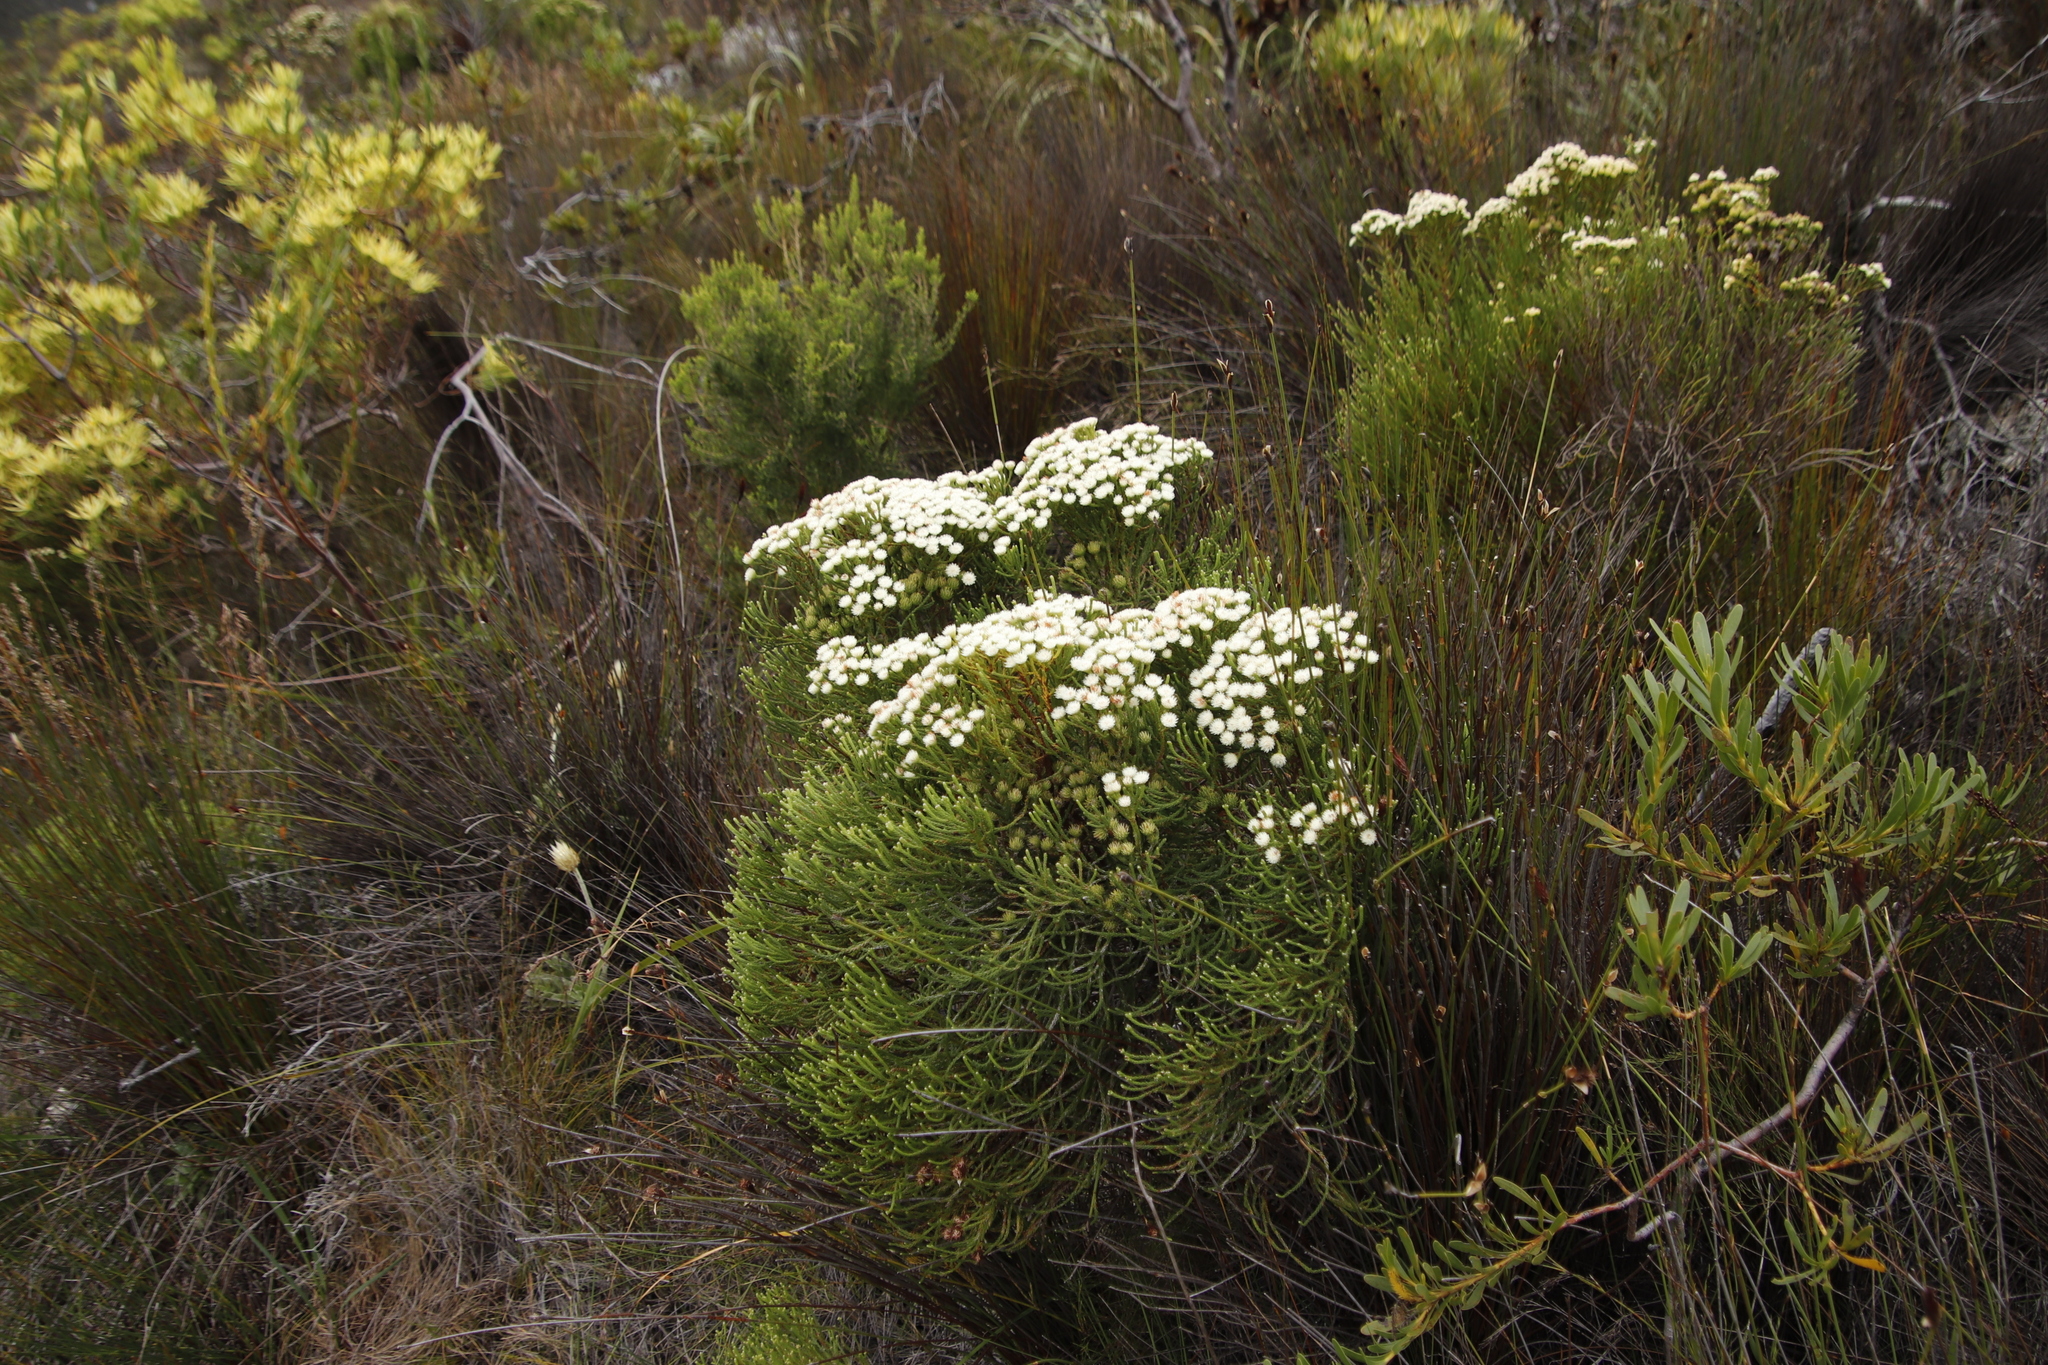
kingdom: Plantae
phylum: Tracheophyta
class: Magnoliopsida
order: Bruniales
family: Bruniaceae
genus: Brunia
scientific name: Brunia paleacea
